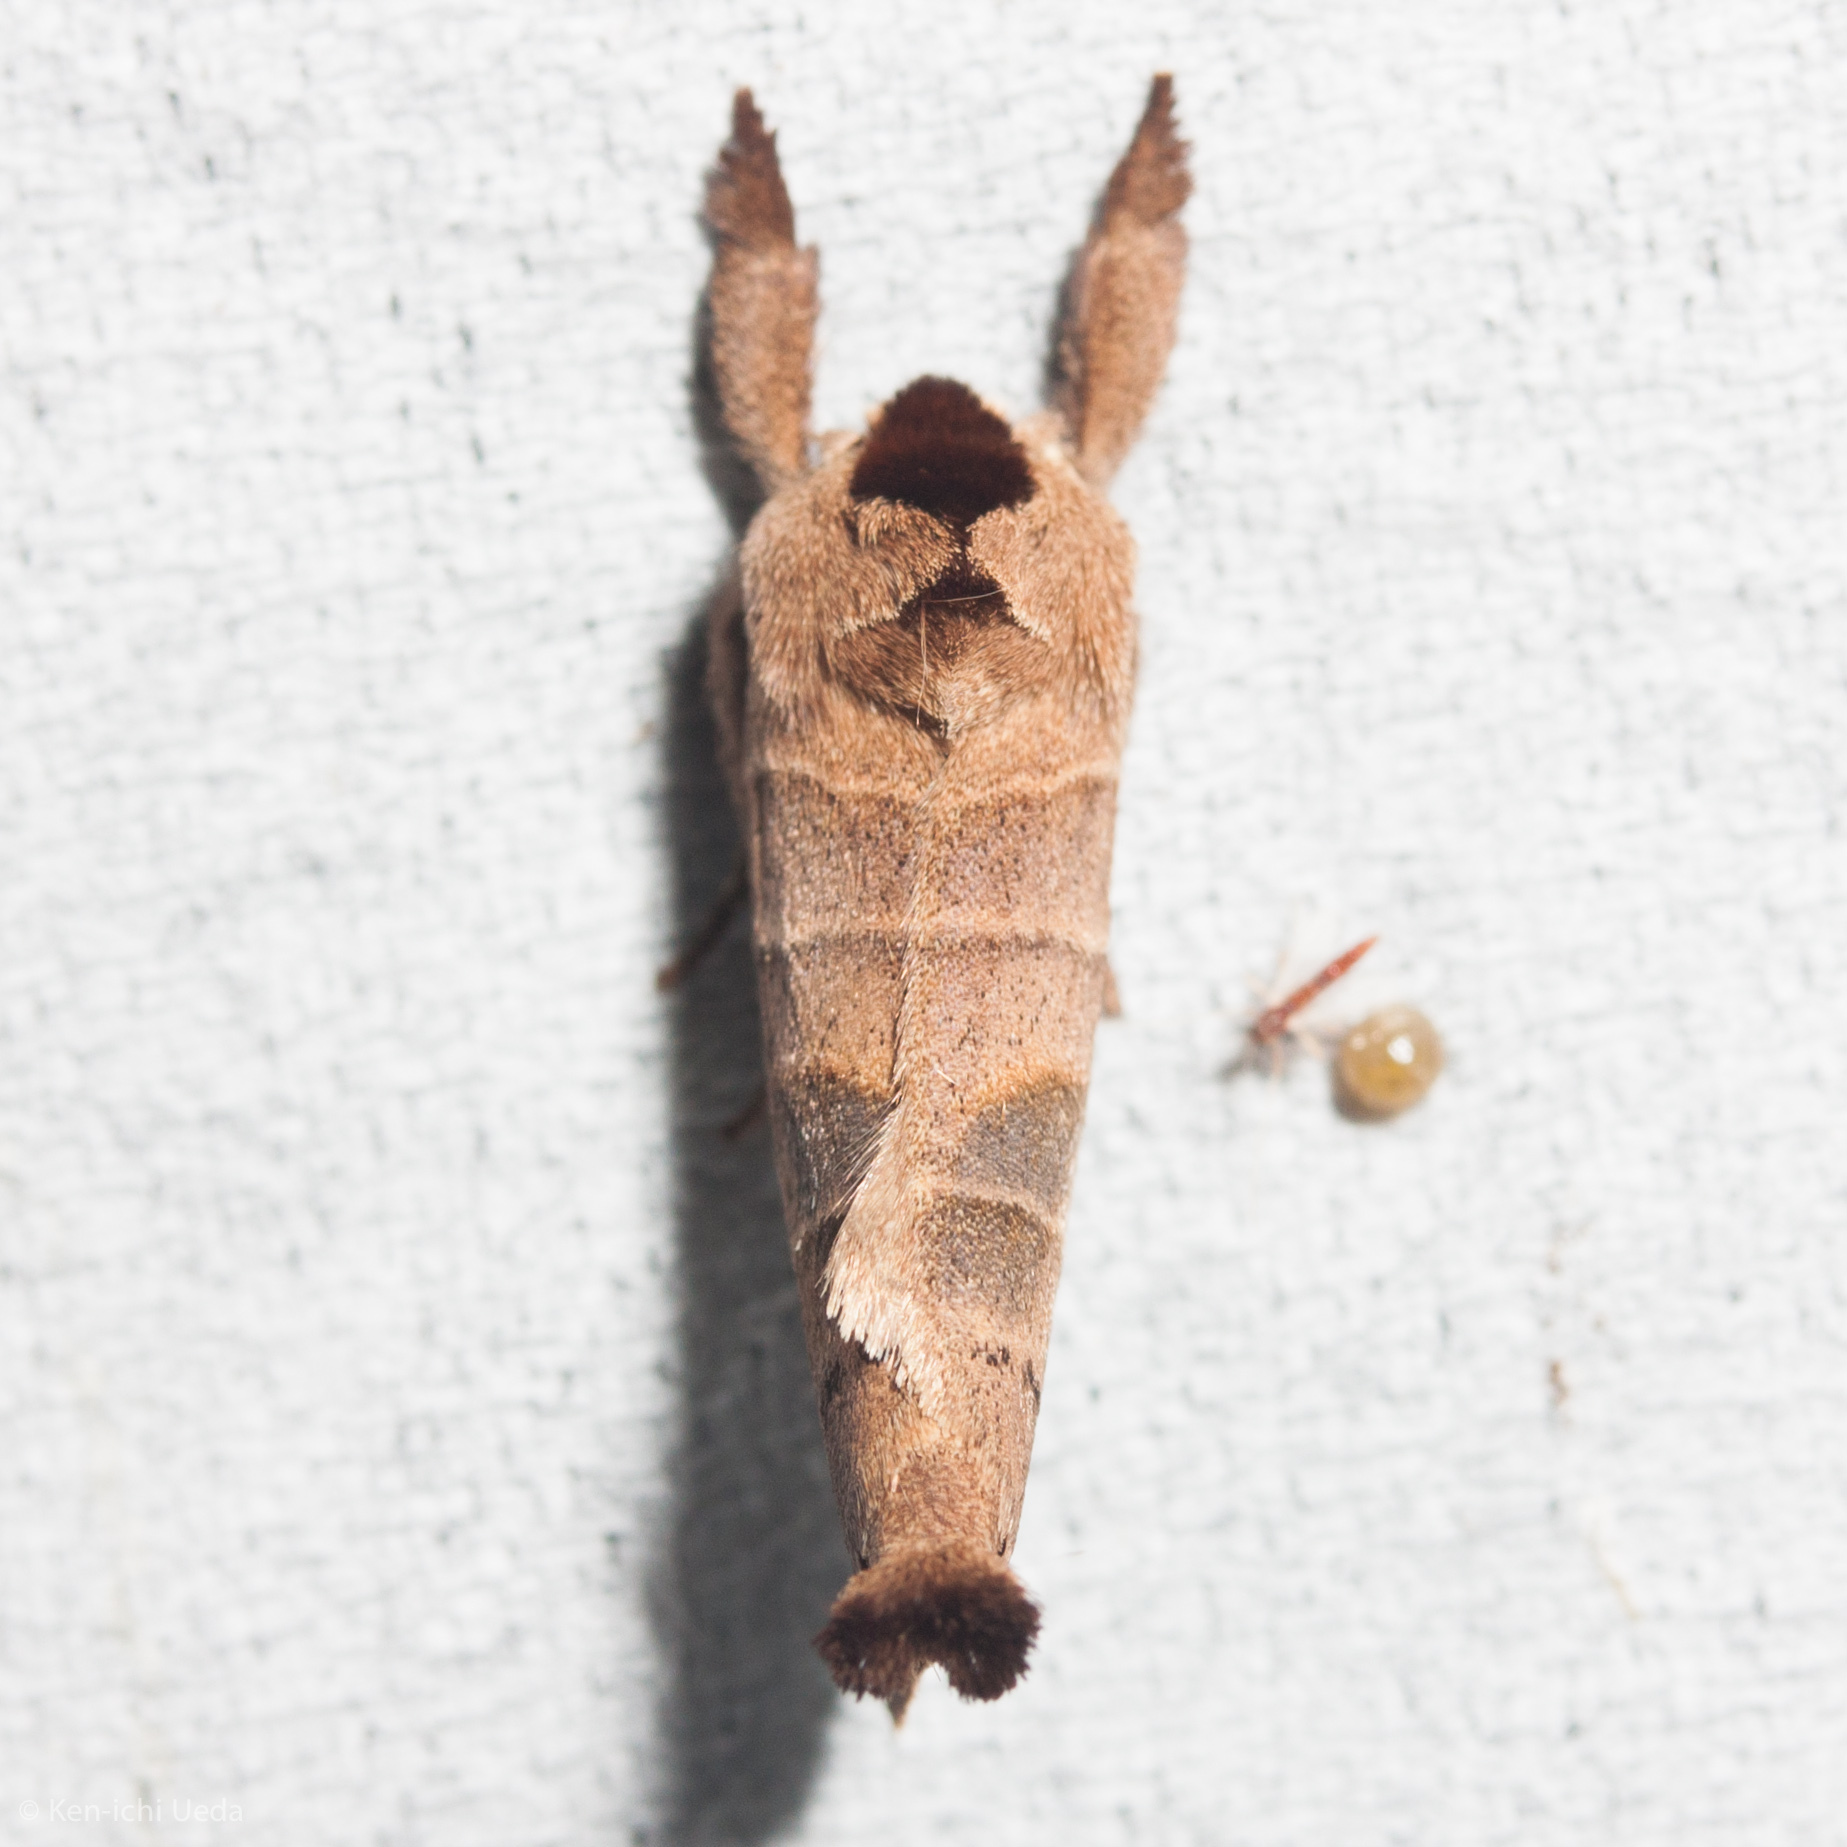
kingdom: Animalia
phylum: Arthropoda
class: Insecta
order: Lepidoptera
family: Notodontidae
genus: Clostera
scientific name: Clostera albosigma
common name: Sigmoid prominent
